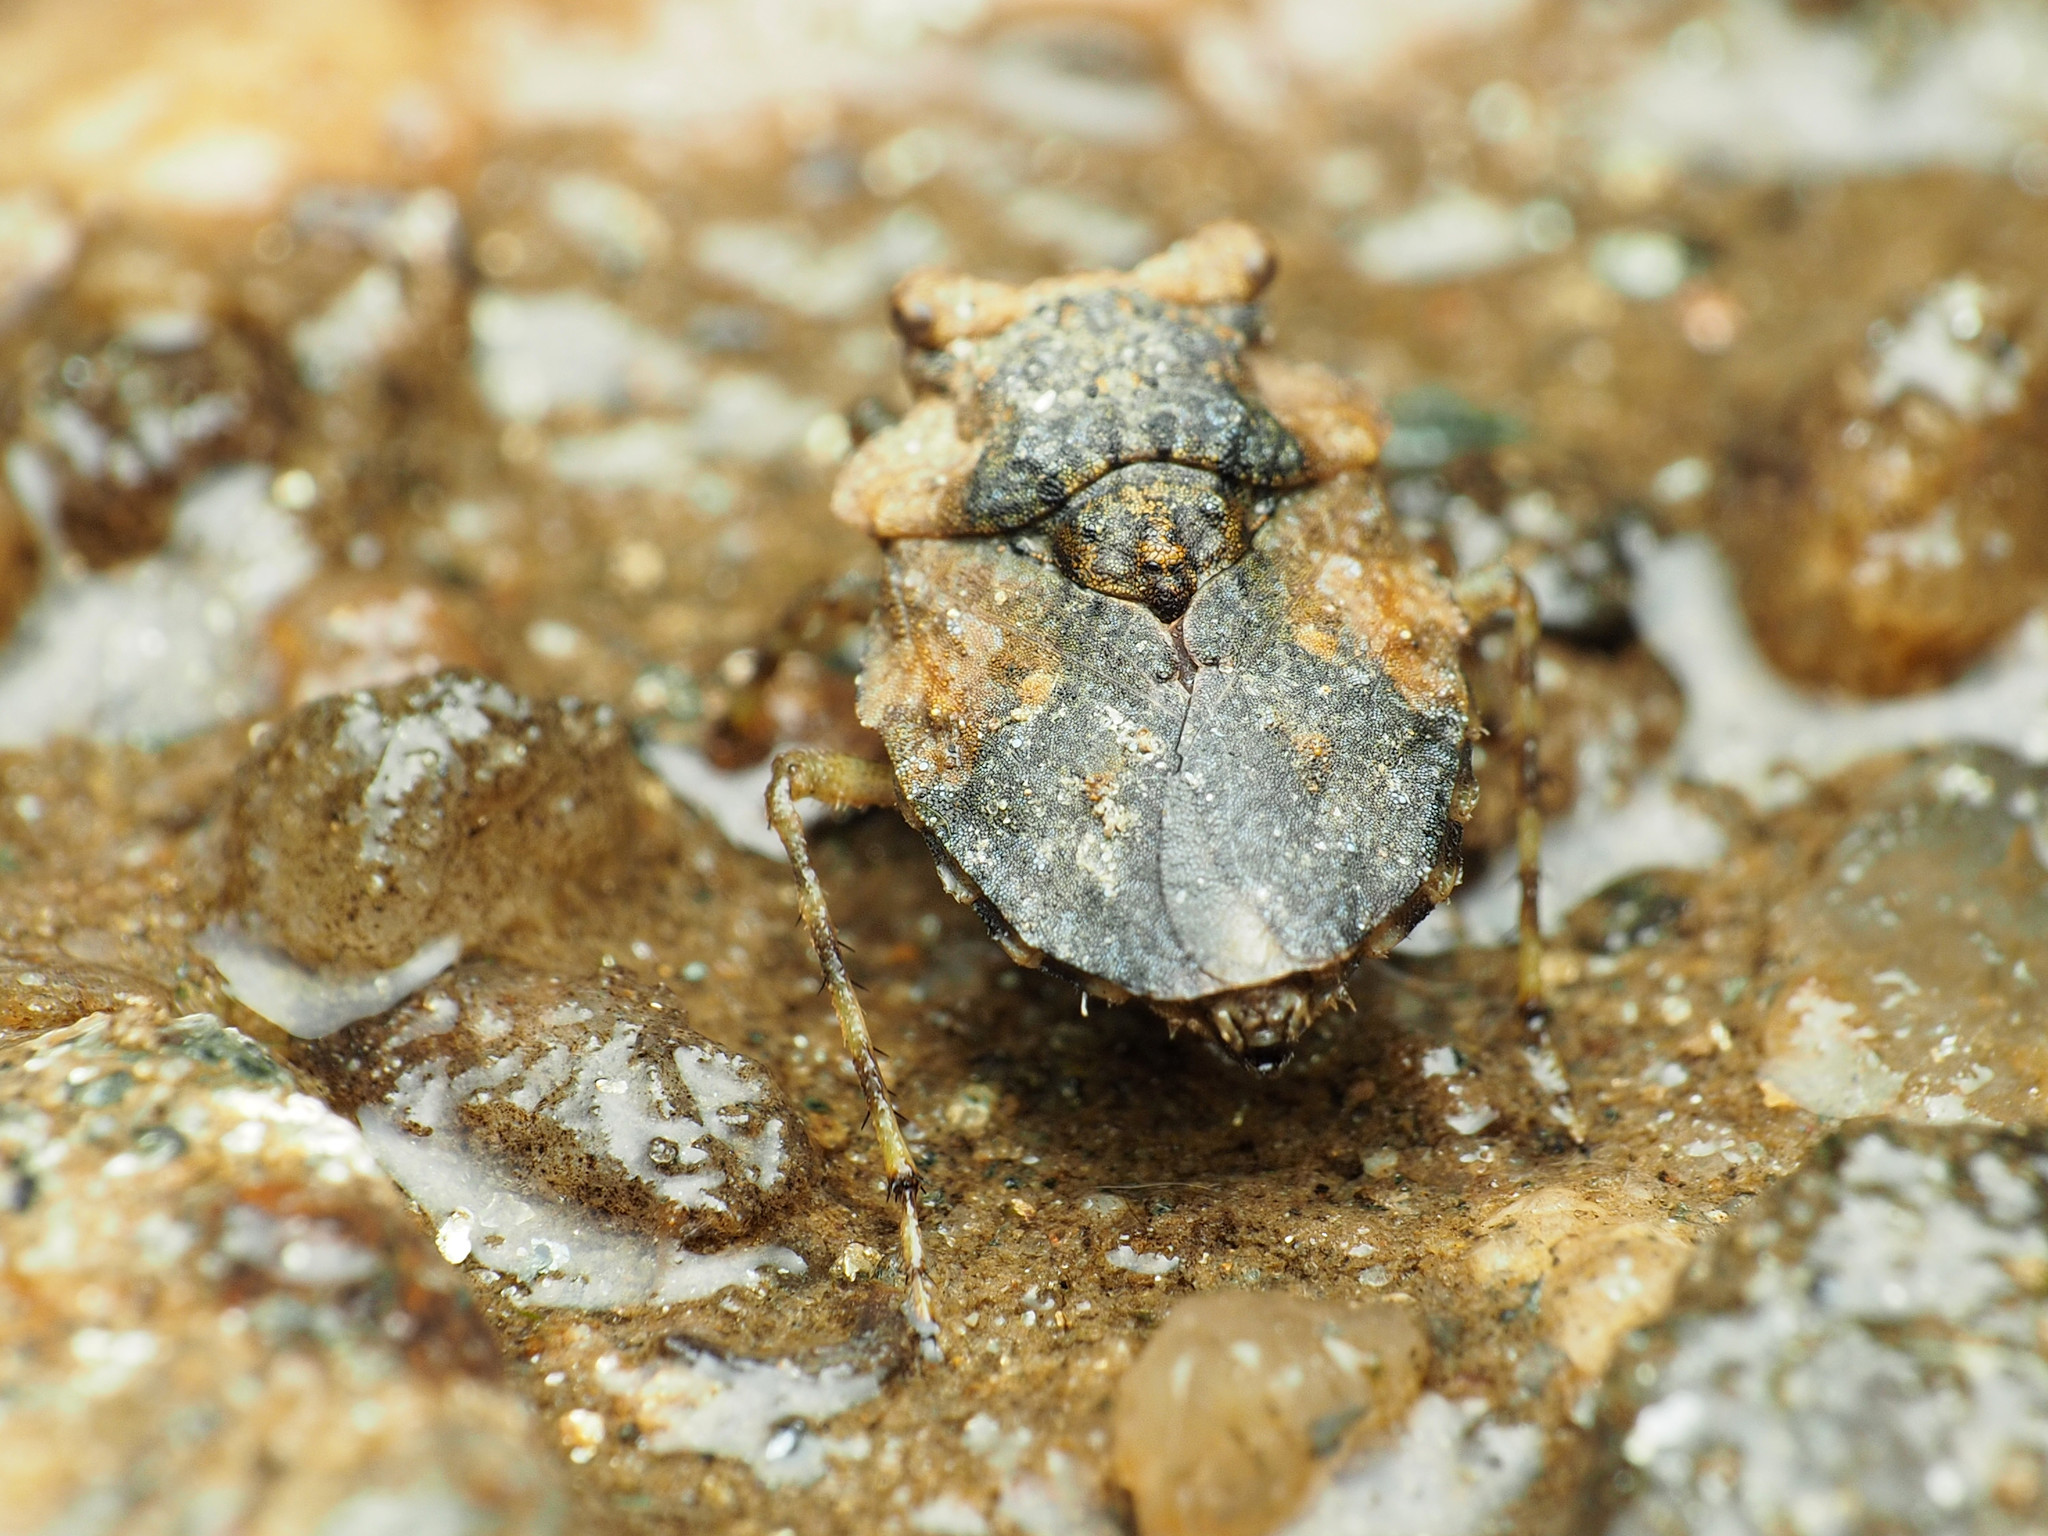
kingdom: Animalia
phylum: Arthropoda
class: Insecta
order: Hemiptera
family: Gelastocoridae
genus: Gelastocoris
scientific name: Gelastocoris oculatus
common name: Toad bug
